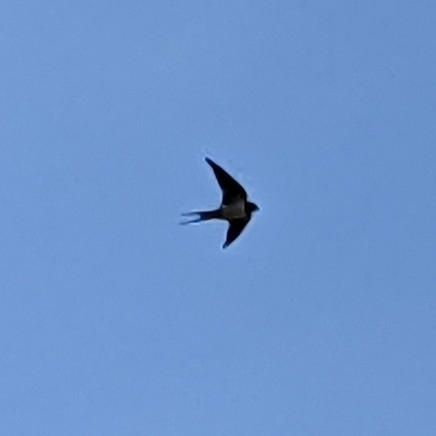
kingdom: Animalia
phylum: Chordata
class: Aves
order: Passeriformes
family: Hirundinidae
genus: Hirundo
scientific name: Hirundo rustica
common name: Barn swallow
